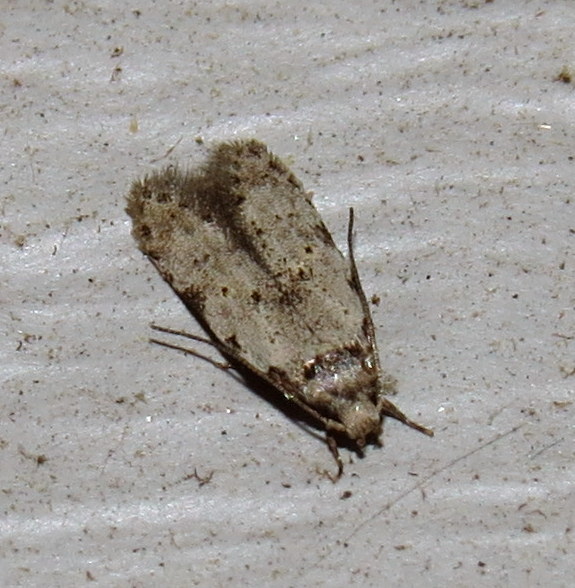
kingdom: Animalia
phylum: Arthropoda
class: Insecta
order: Lepidoptera
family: Autostichidae
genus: Taygete
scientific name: Taygete attributella
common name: Triangle-marked twirler moth
